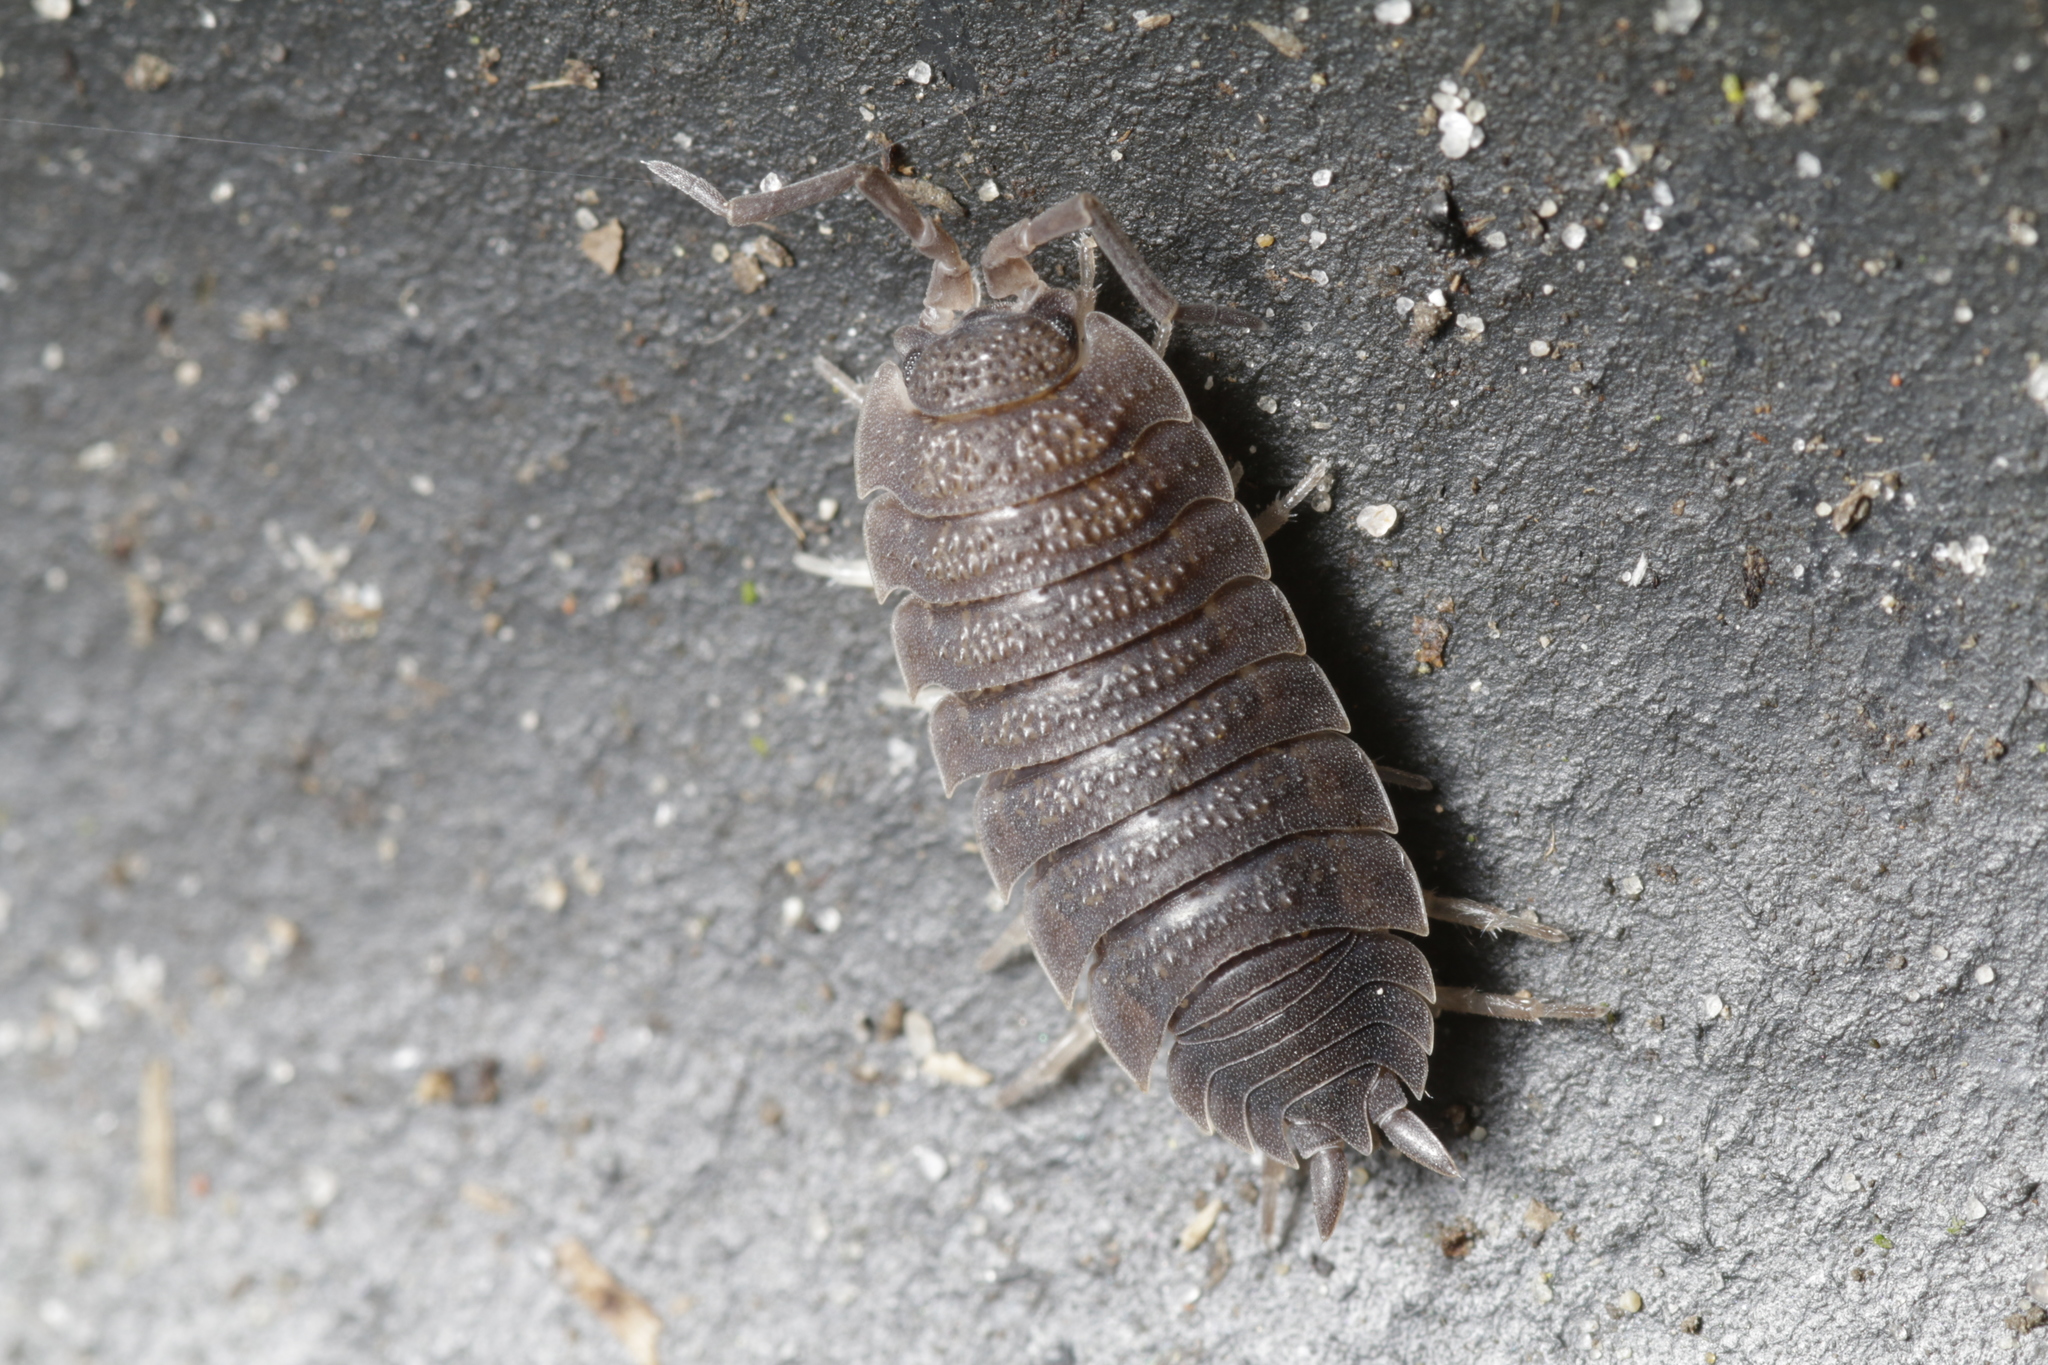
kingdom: Animalia
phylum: Arthropoda
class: Malacostraca
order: Isopoda
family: Porcellionidae
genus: Porcellio
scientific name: Porcellio scaber
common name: Common rough woodlouse
